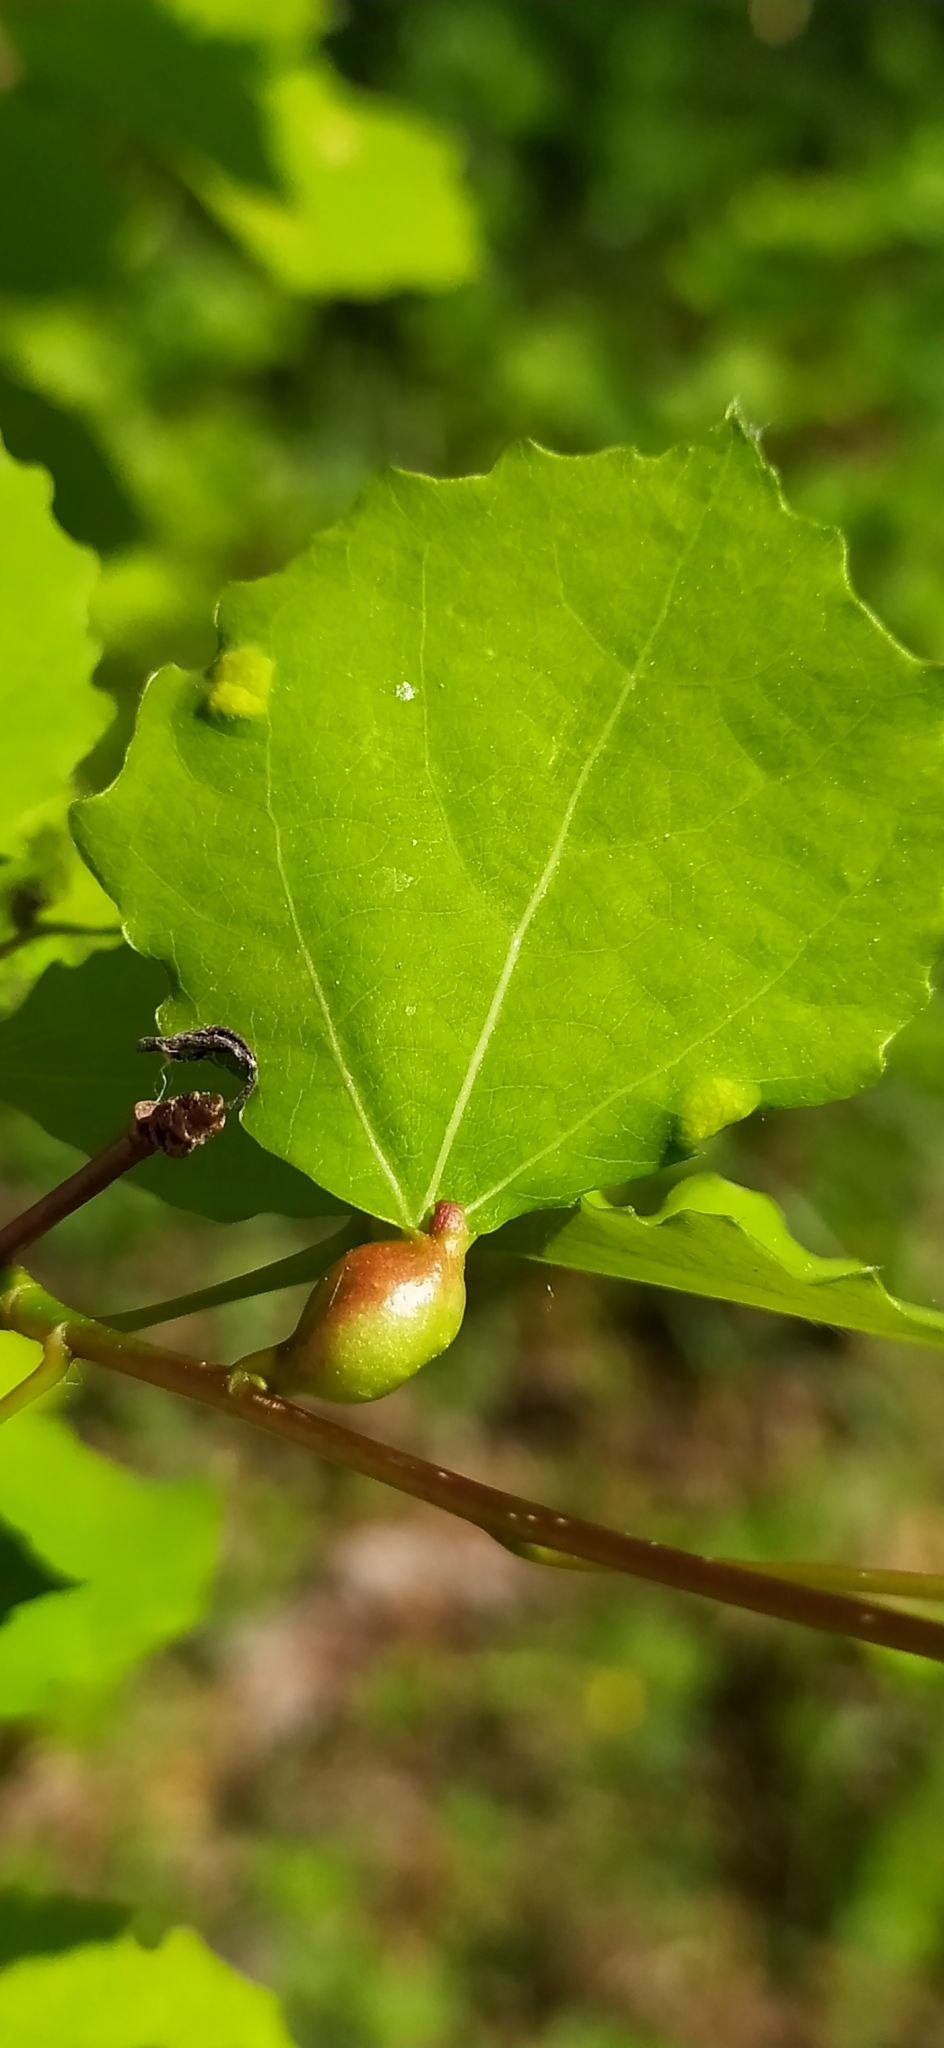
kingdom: Animalia
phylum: Arthropoda
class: Insecta
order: Diptera
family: Cecidomyiidae
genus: Contarinia
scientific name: Contarinia petioli
